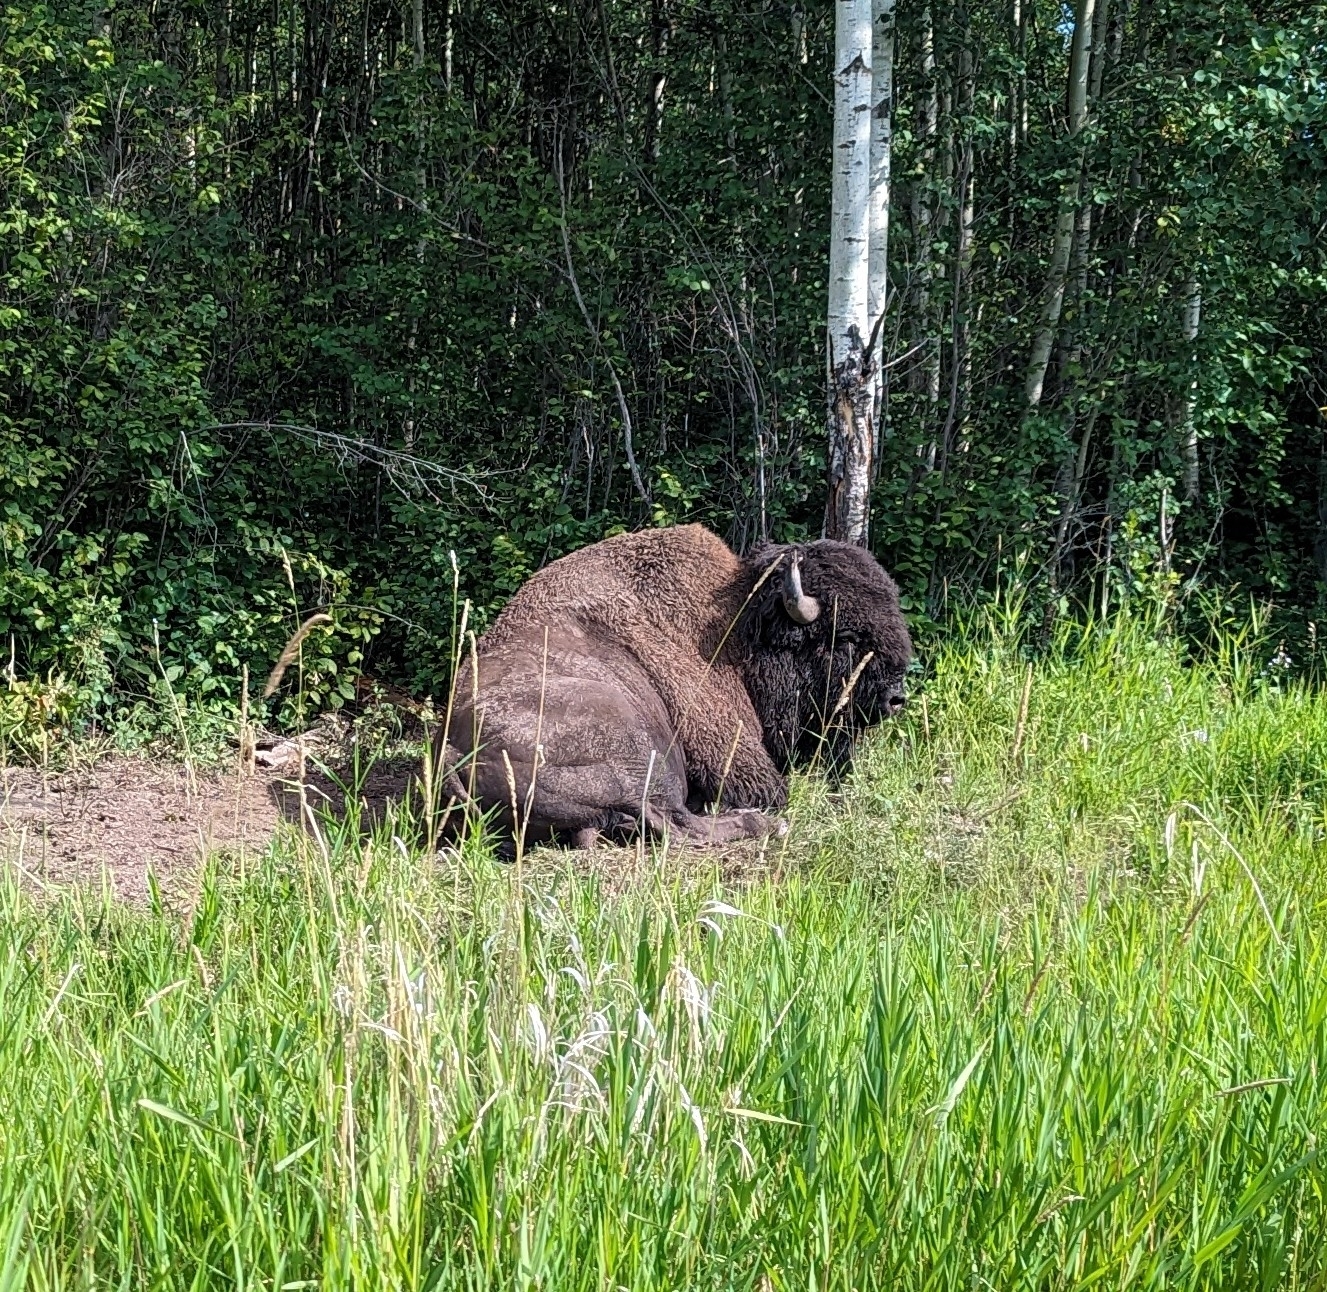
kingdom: Animalia
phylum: Chordata
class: Mammalia
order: Artiodactyla
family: Bovidae
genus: Bison
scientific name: Bison bison
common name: American bison
